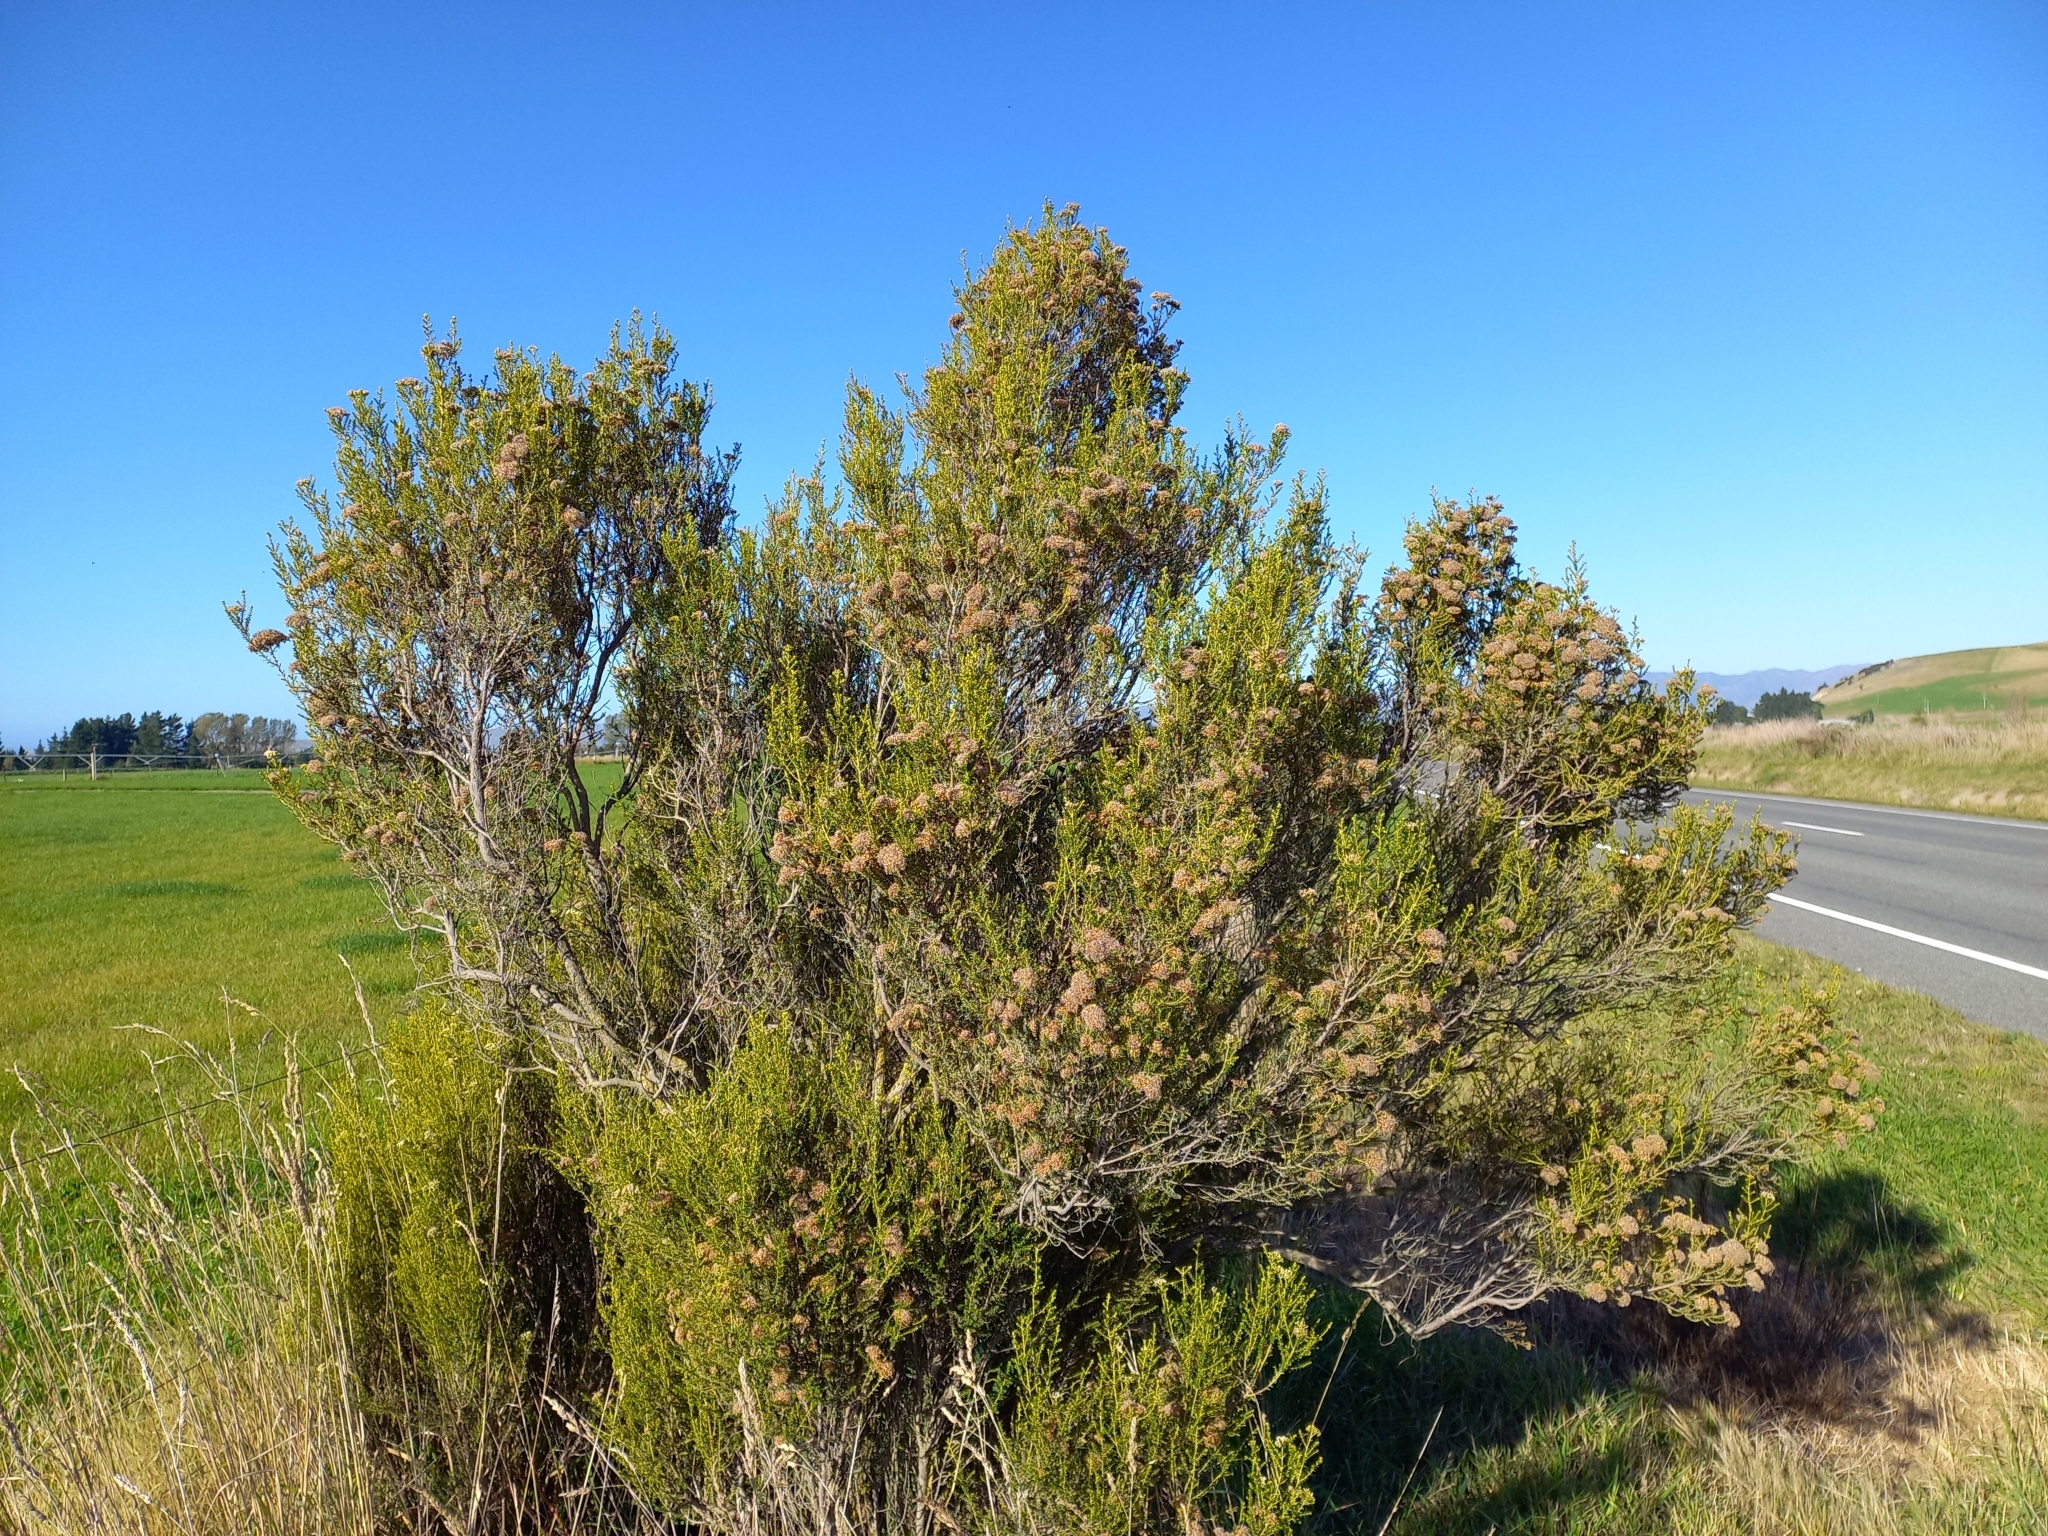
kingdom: Plantae
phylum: Tracheophyta
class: Magnoliopsida
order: Asterales
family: Asteraceae
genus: Ozothamnus
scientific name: Ozothamnus leptophyllus
